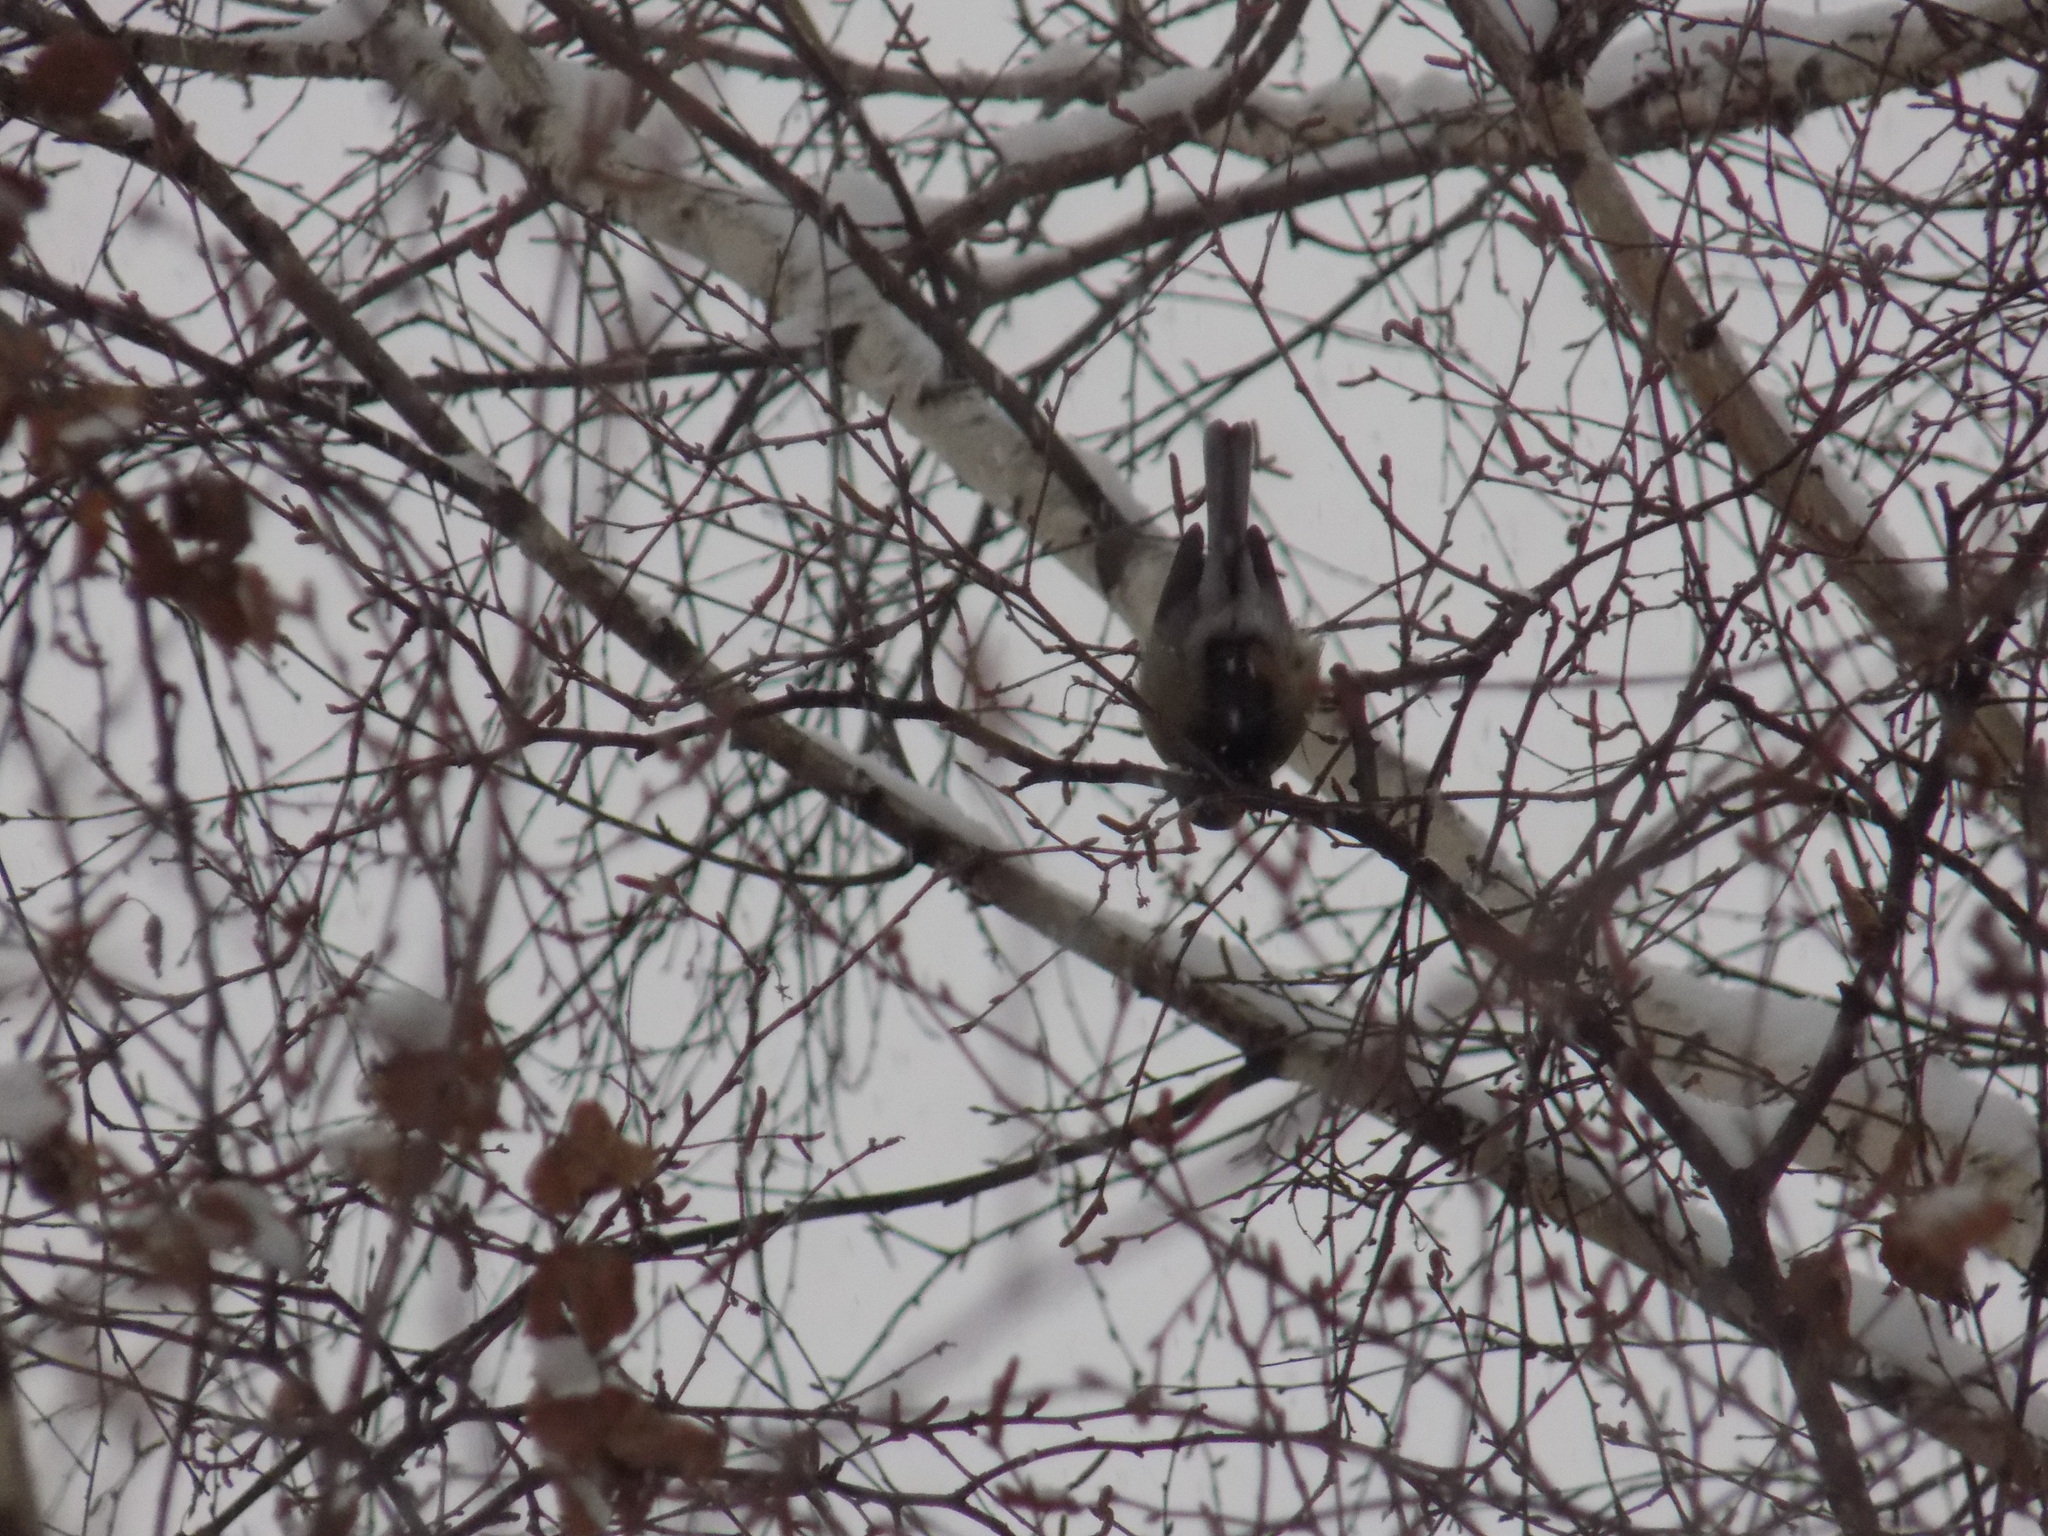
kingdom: Animalia
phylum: Chordata
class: Aves
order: Passeriformes
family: Paridae
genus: Parus
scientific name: Parus major
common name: Great tit
